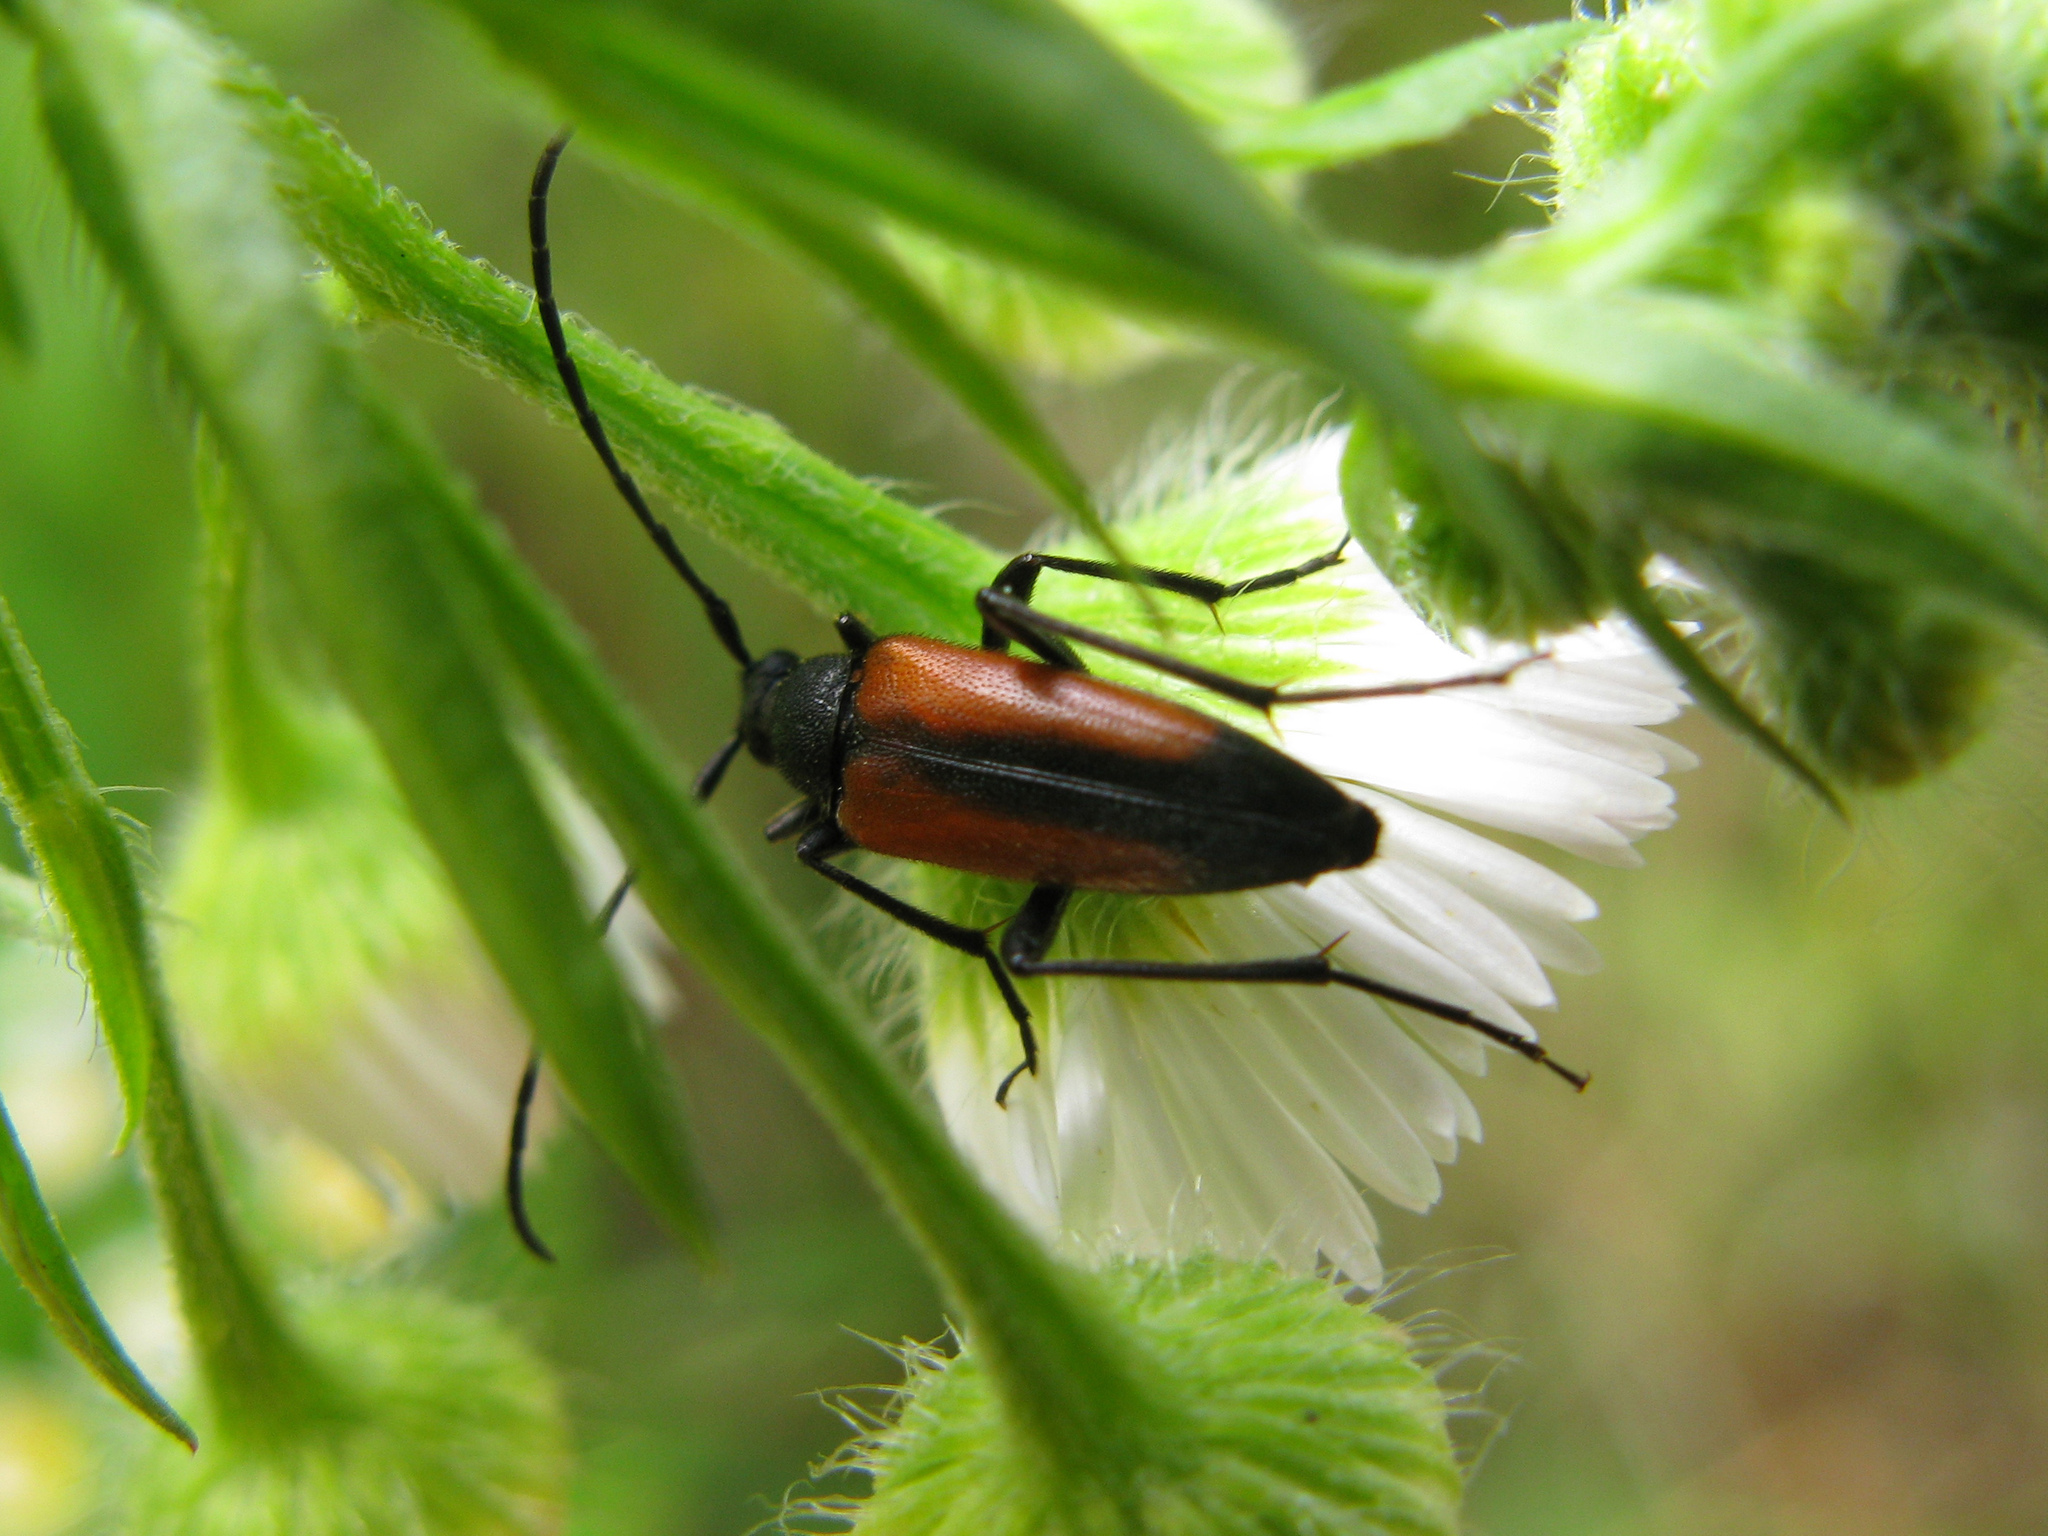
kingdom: Animalia
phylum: Arthropoda
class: Insecta
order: Coleoptera
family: Cerambycidae
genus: Stenurella
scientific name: Stenurella melanura
